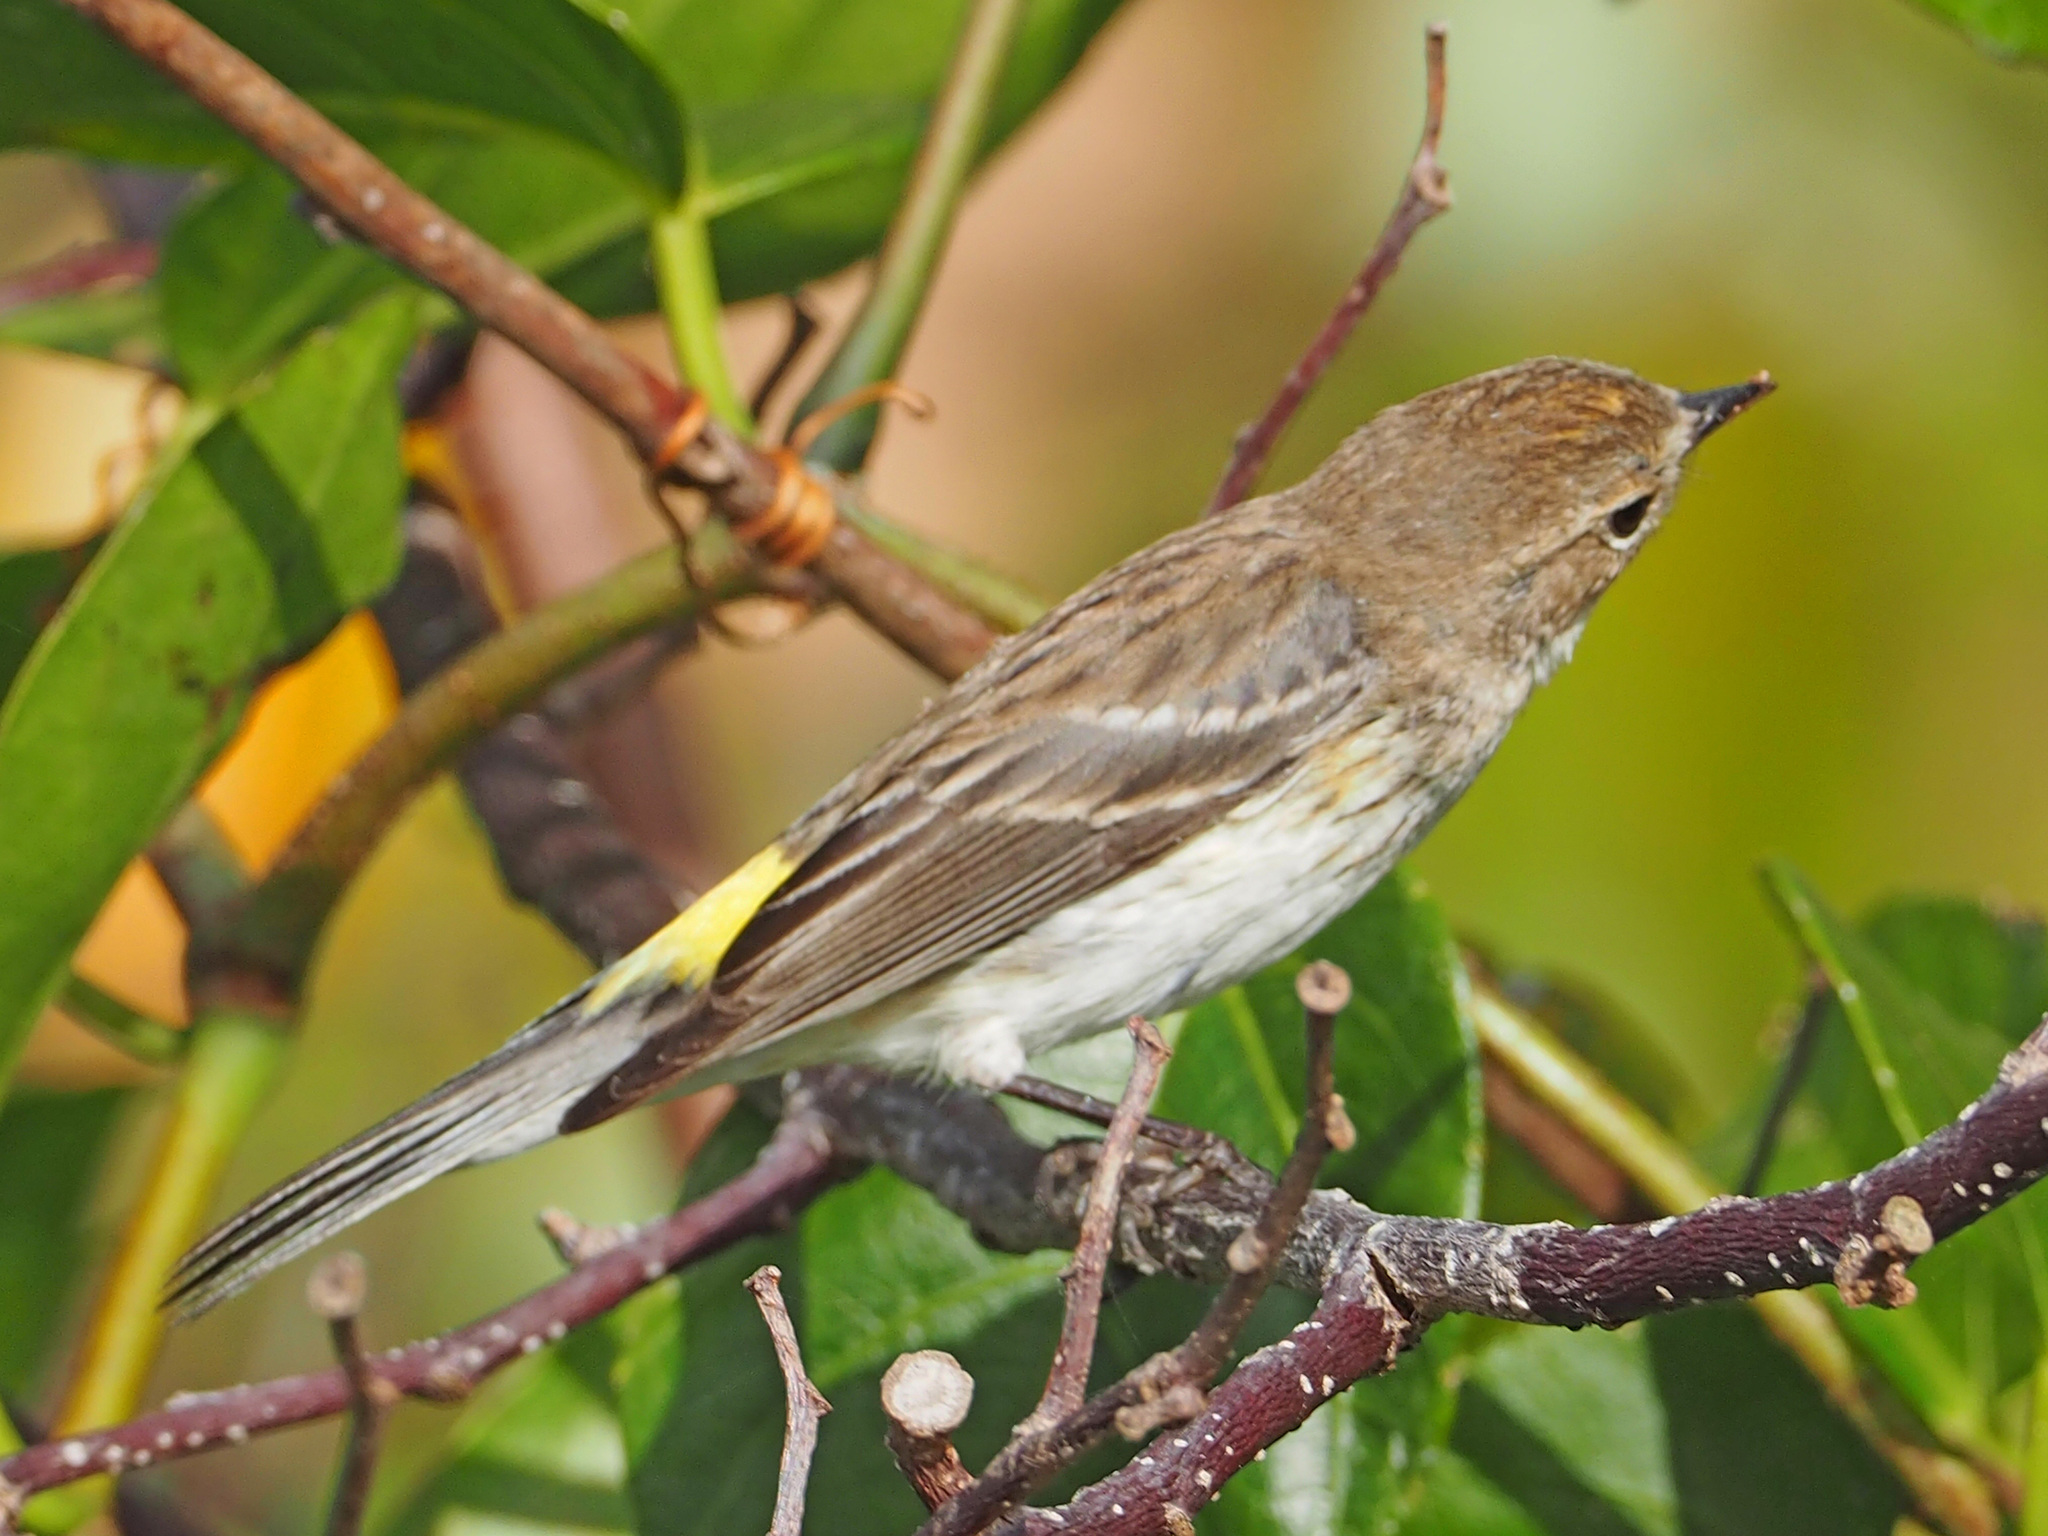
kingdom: Animalia
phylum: Chordata
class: Aves
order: Passeriformes
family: Parulidae
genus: Setophaga
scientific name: Setophaga coronata
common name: Myrtle warbler
